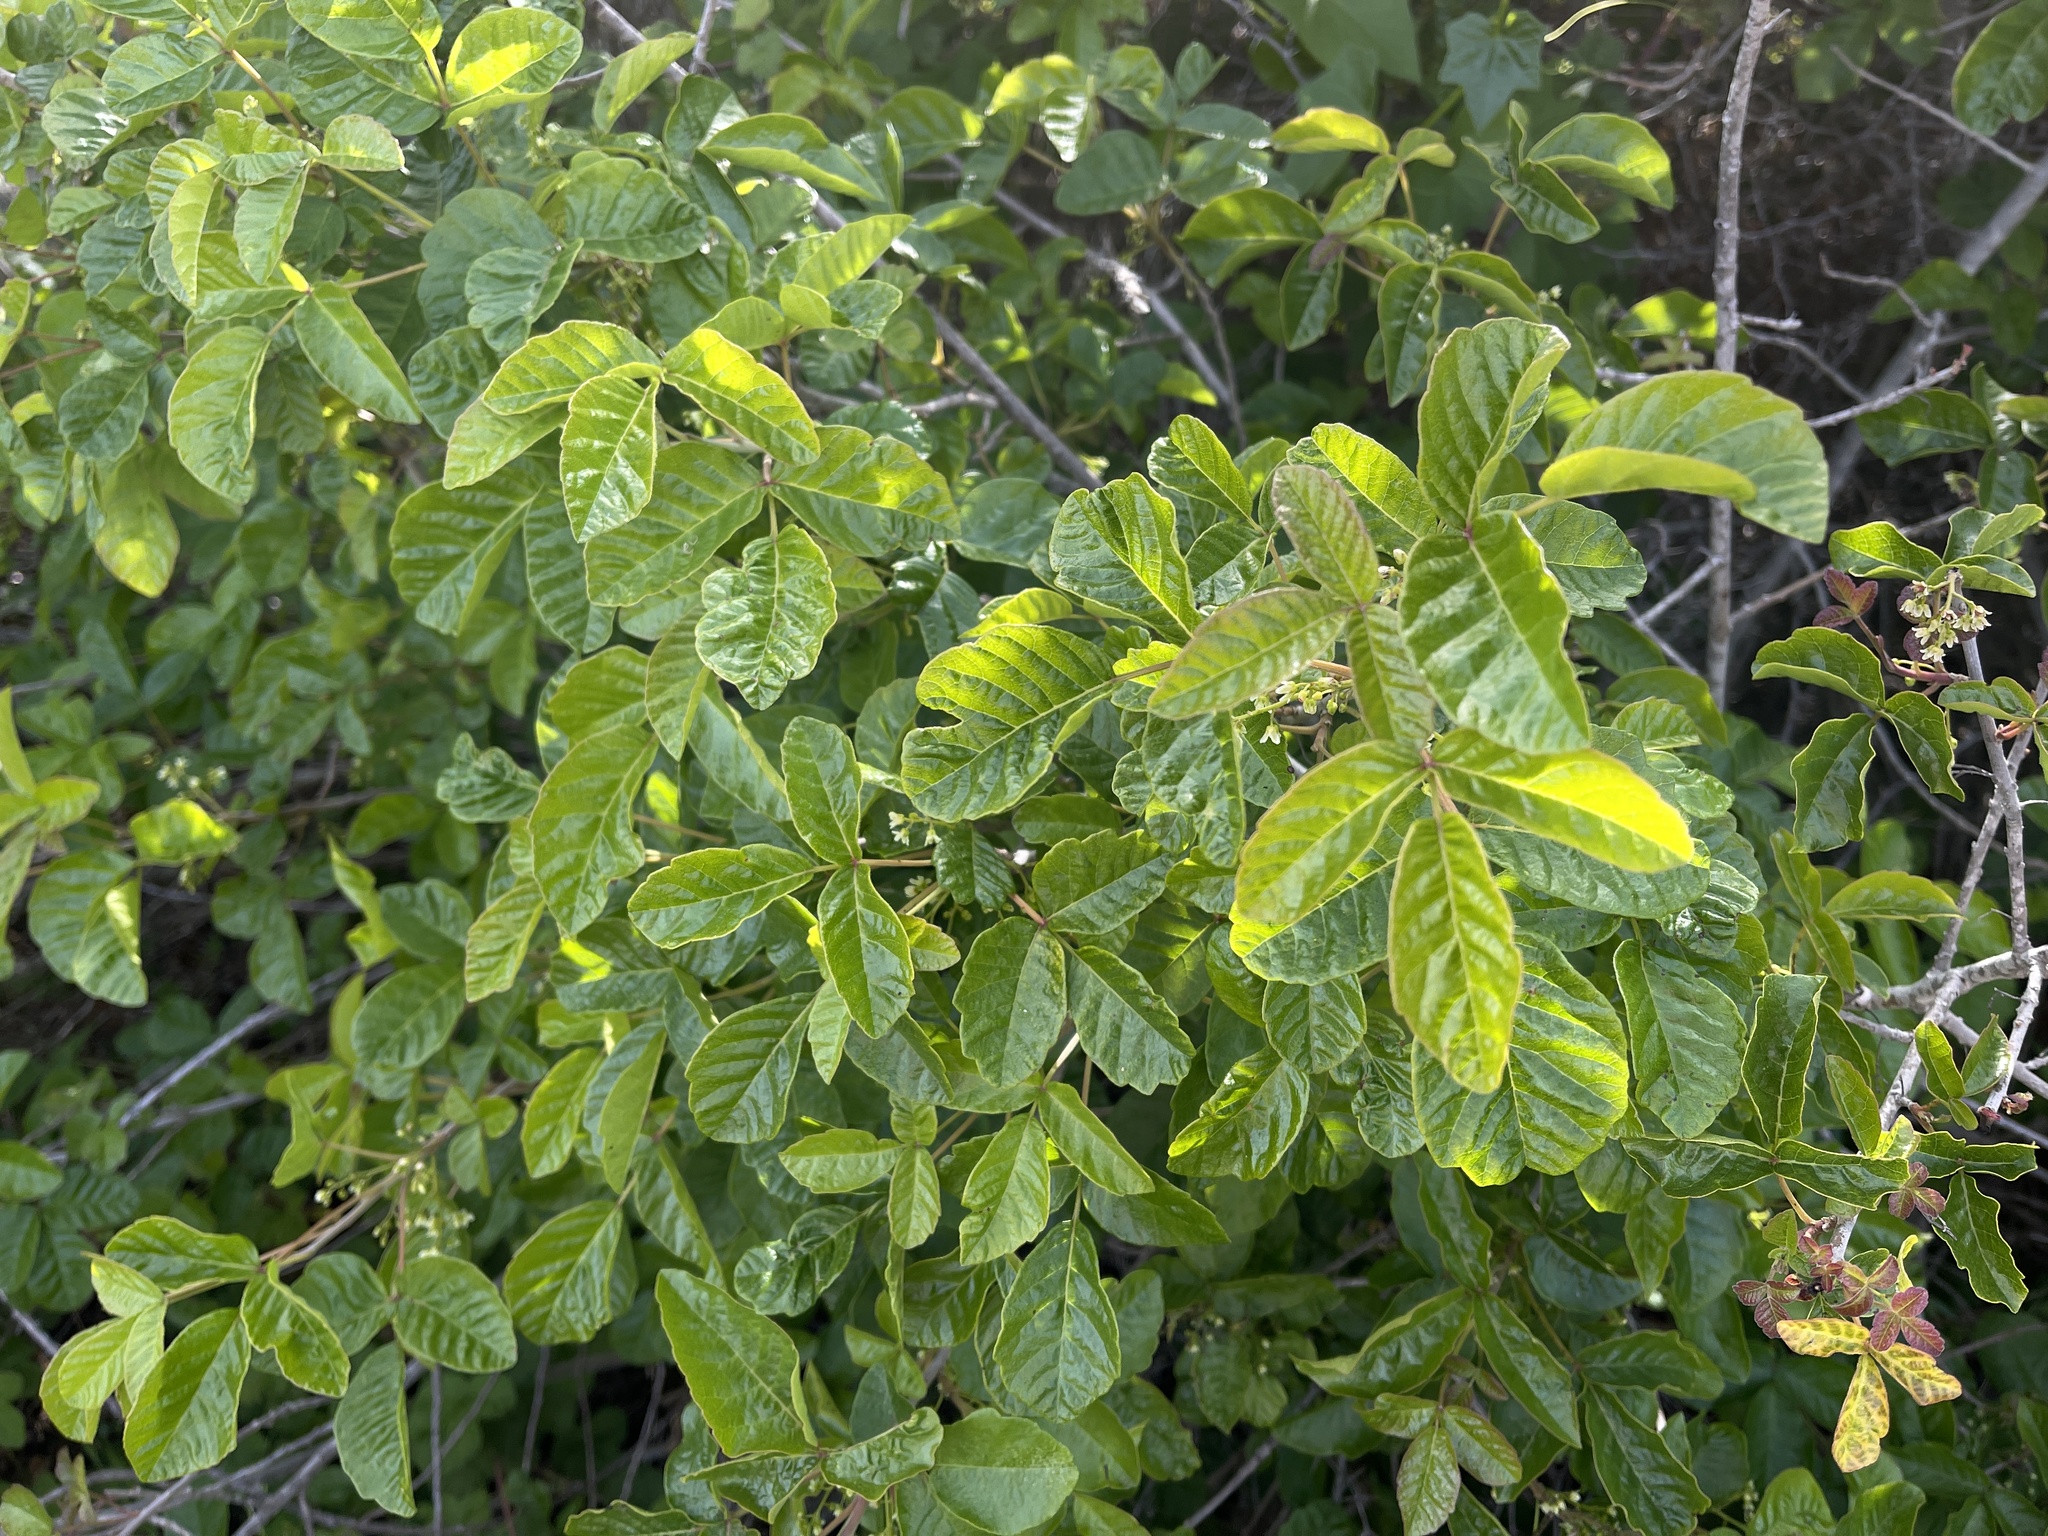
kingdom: Plantae
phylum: Tracheophyta
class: Magnoliopsida
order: Sapindales
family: Anacardiaceae
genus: Toxicodendron
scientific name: Toxicodendron diversilobum
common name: Pacific poison-oak
